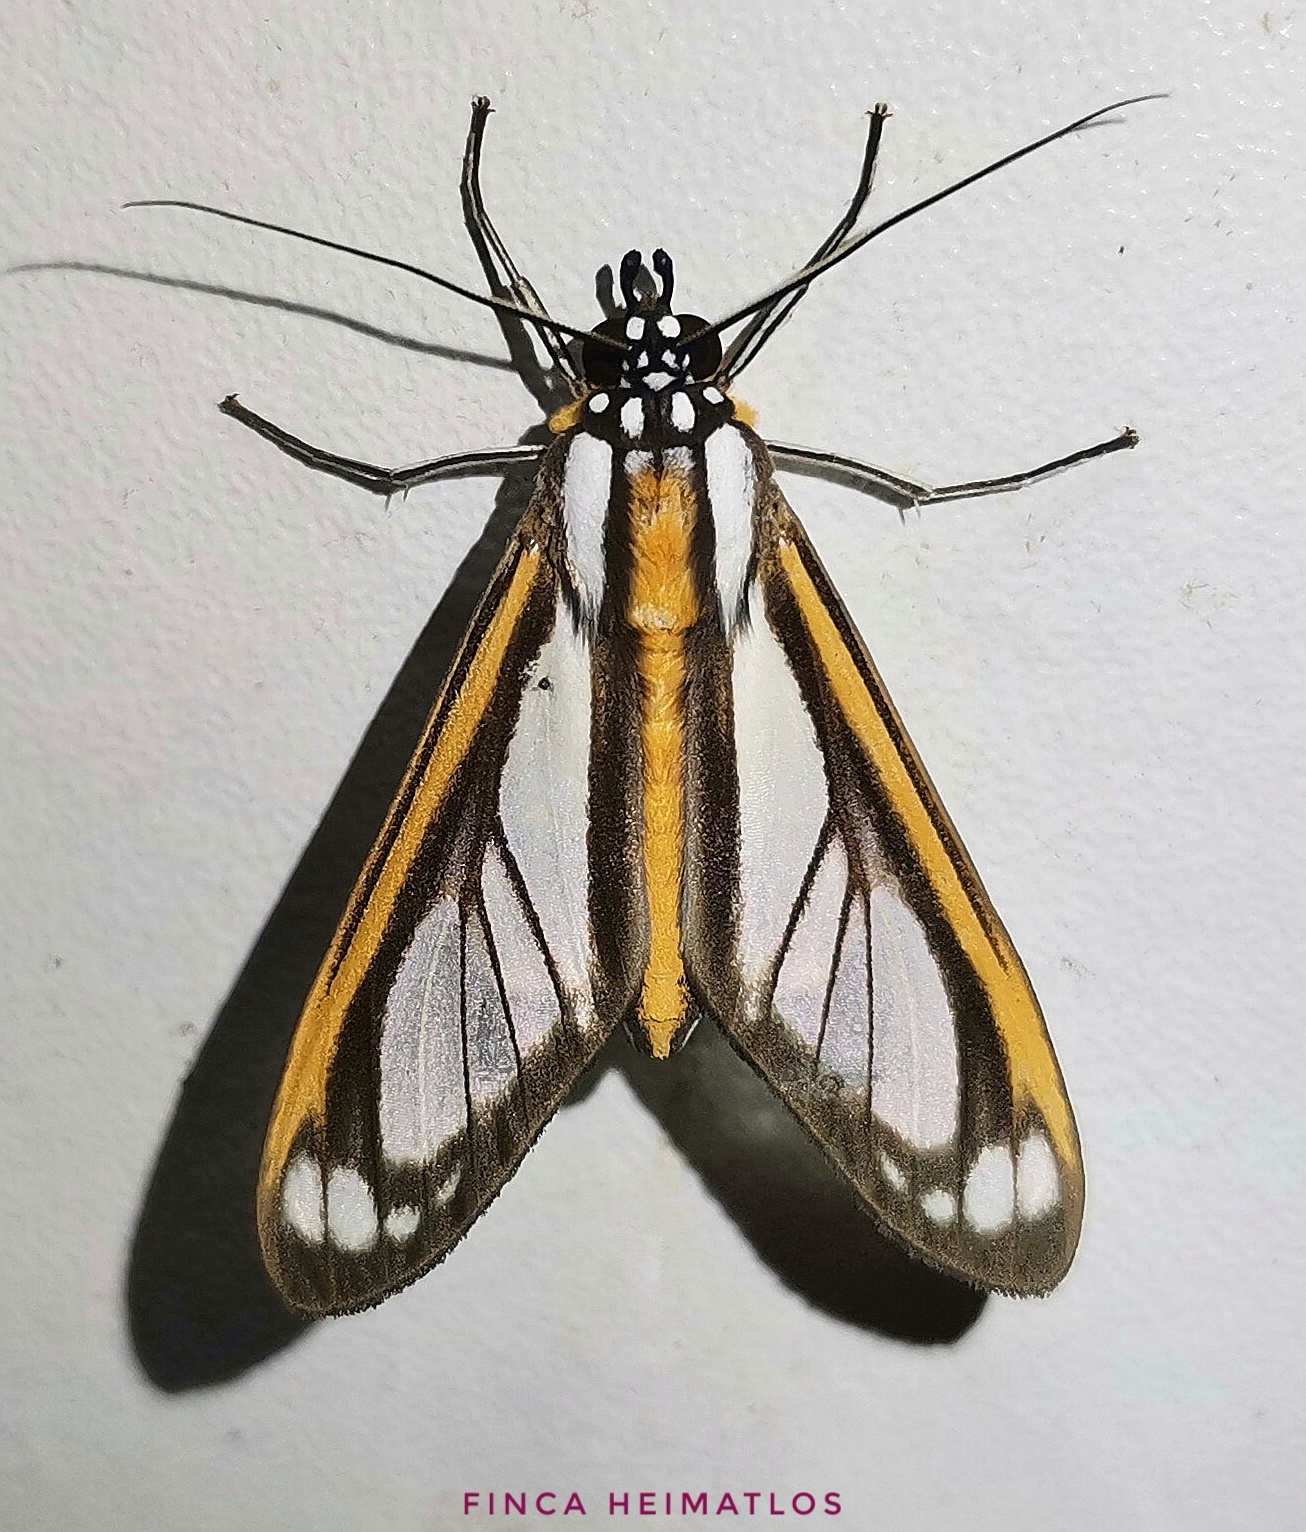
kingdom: Animalia
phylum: Arthropoda
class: Insecta
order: Lepidoptera
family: Erebidae
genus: Robinsonia
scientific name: Robinsonia rockstonia
